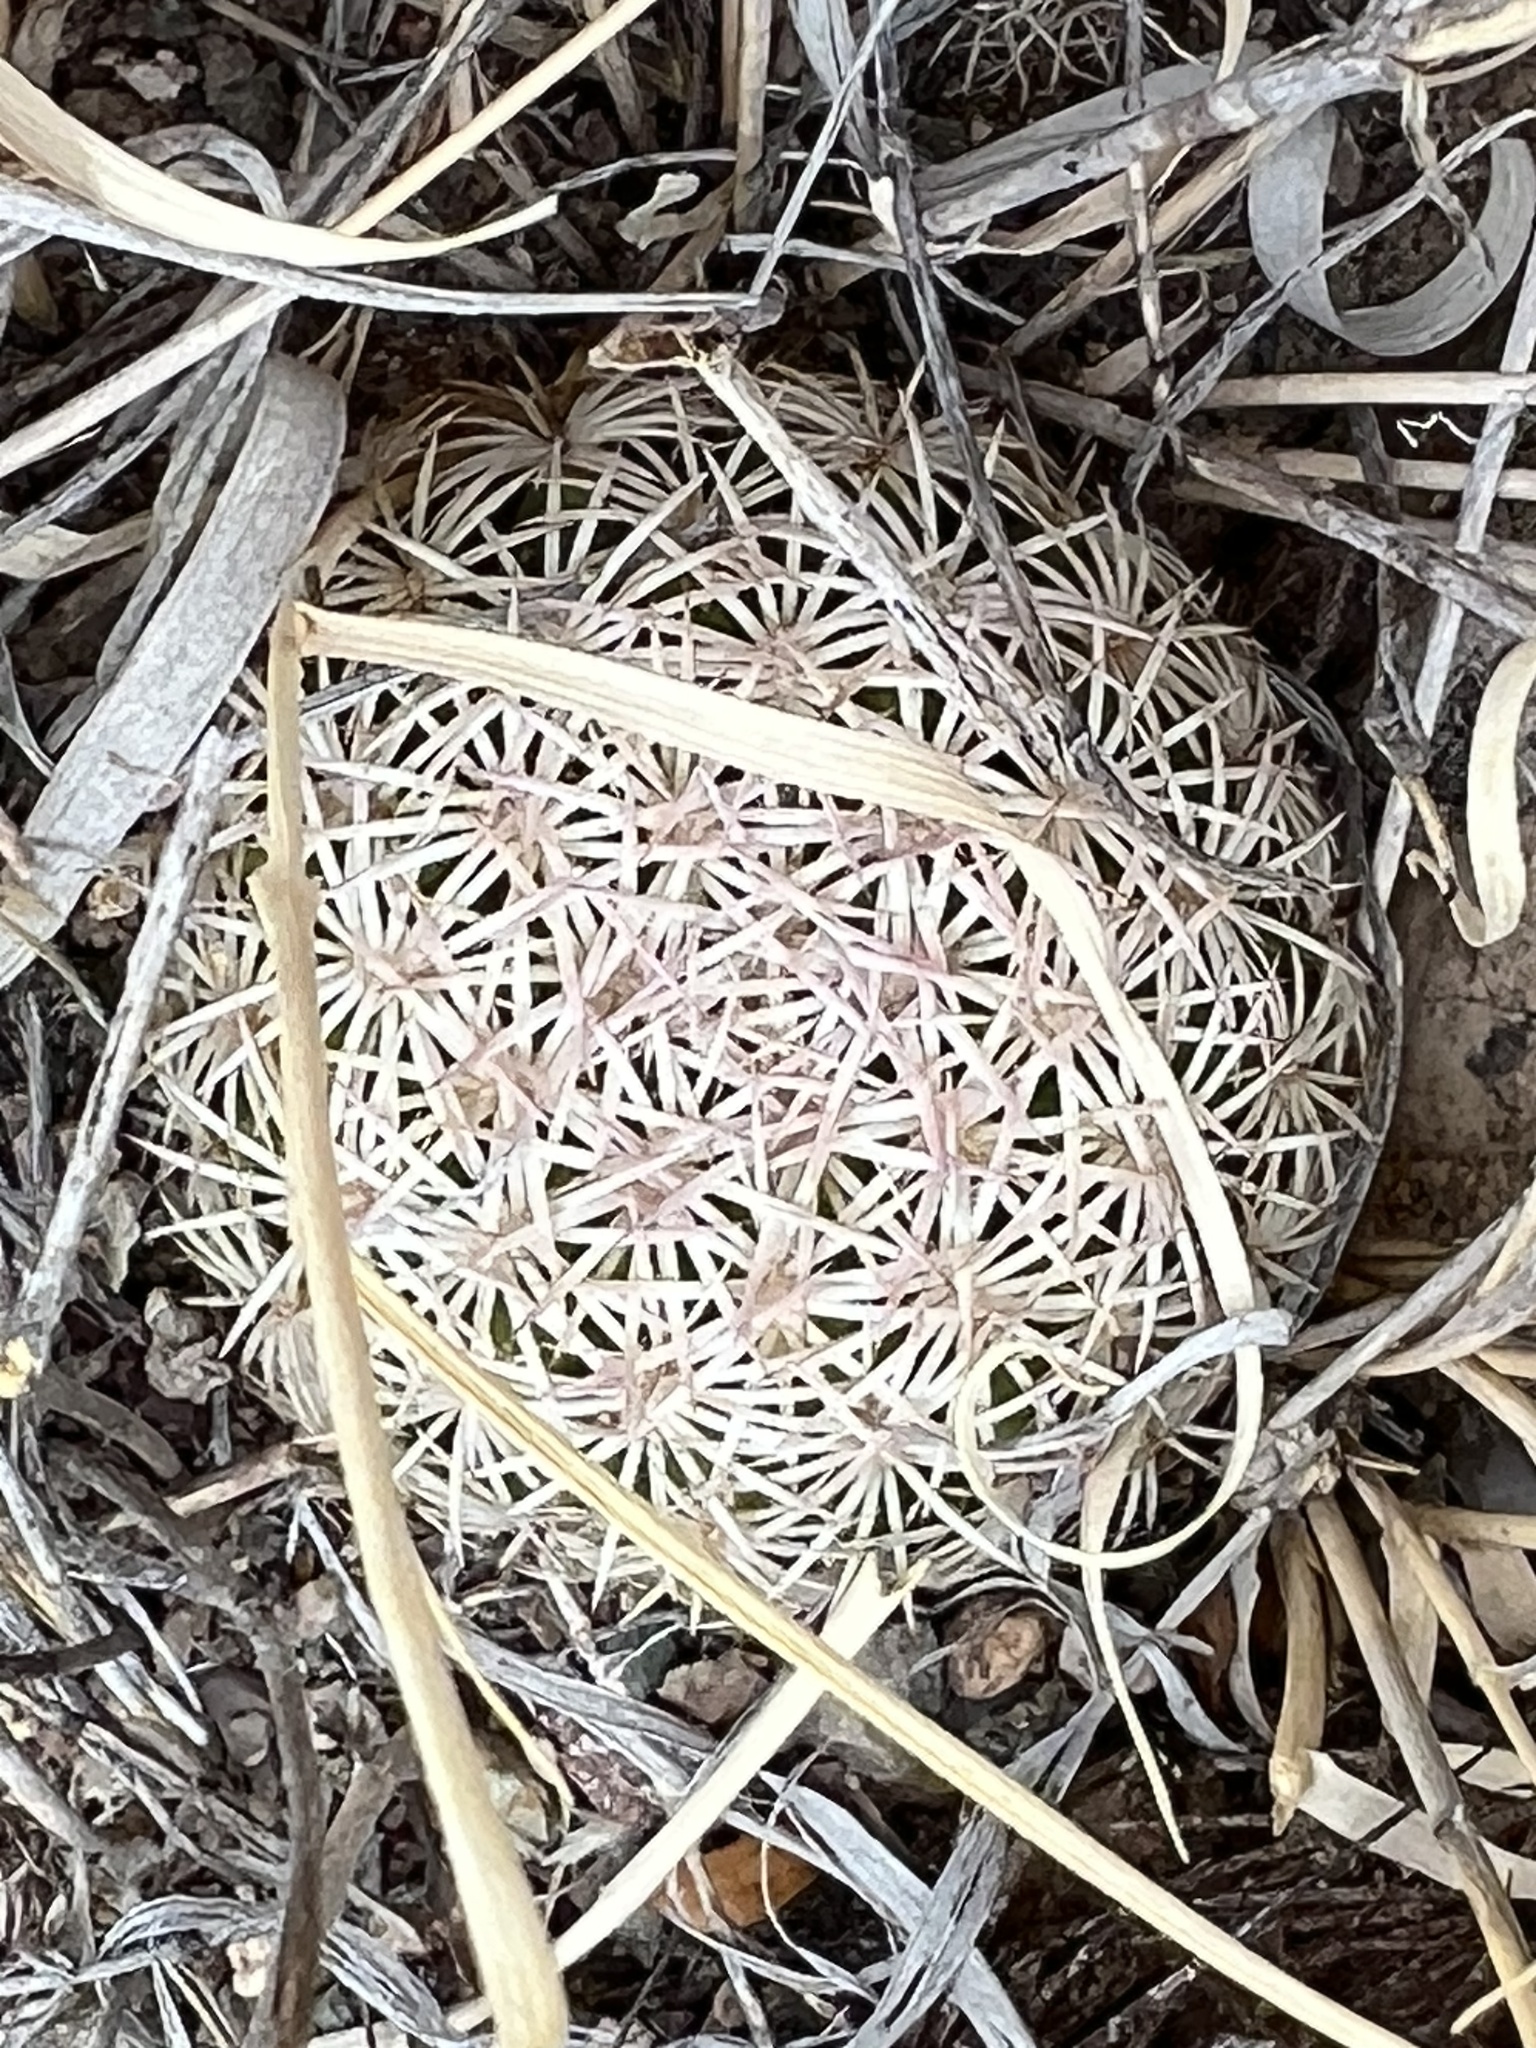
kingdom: Plantae
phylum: Tracheophyta
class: Magnoliopsida
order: Caryophyllales
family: Cactaceae
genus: Sclerocactus
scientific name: Sclerocactus johnsonii
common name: Eight-spine fishhook cactus
